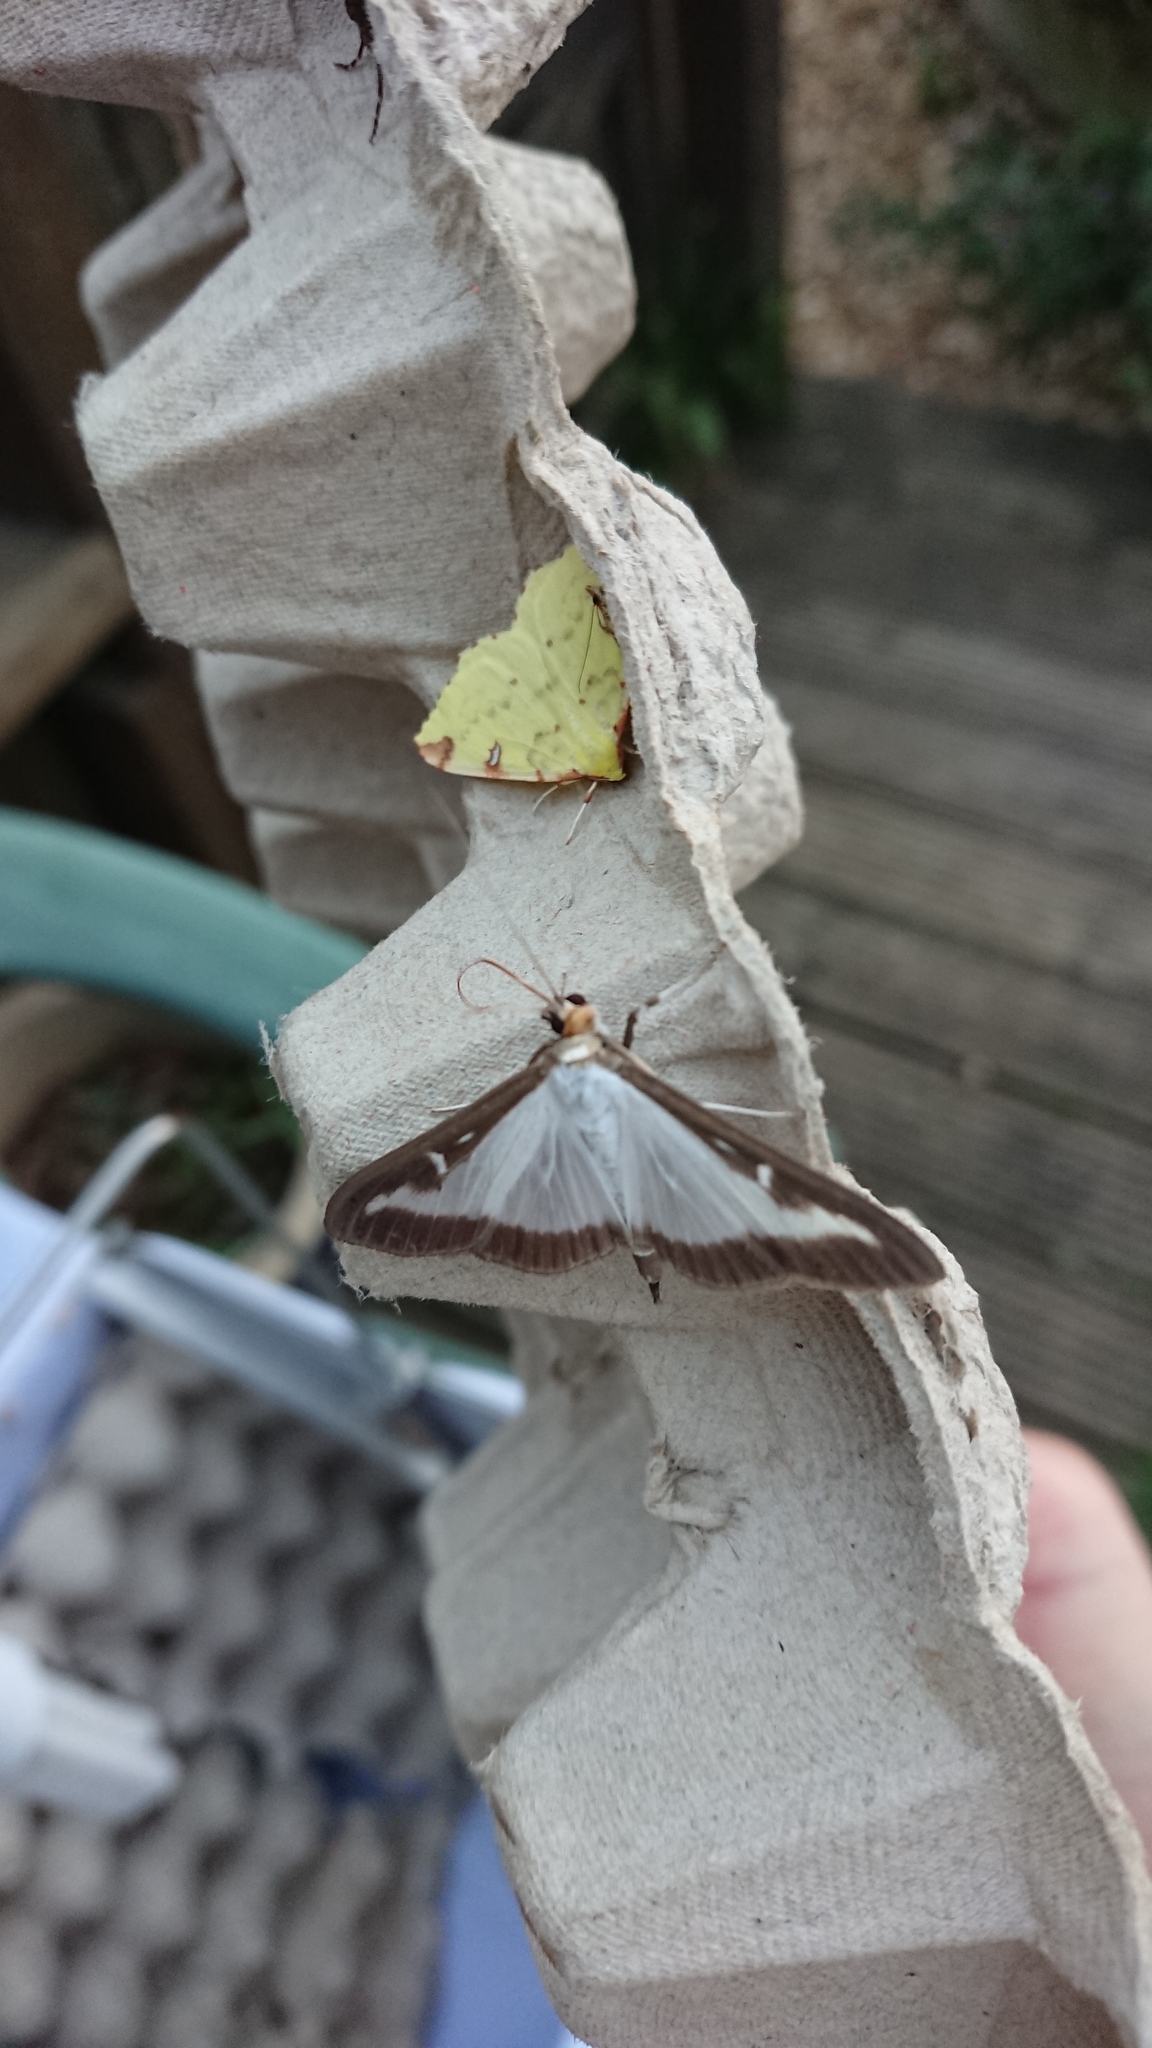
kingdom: Animalia
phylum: Arthropoda
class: Insecta
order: Lepidoptera
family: Crambidae
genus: Cydalima
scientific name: Cydalima perspectalis
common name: Box tree moth
